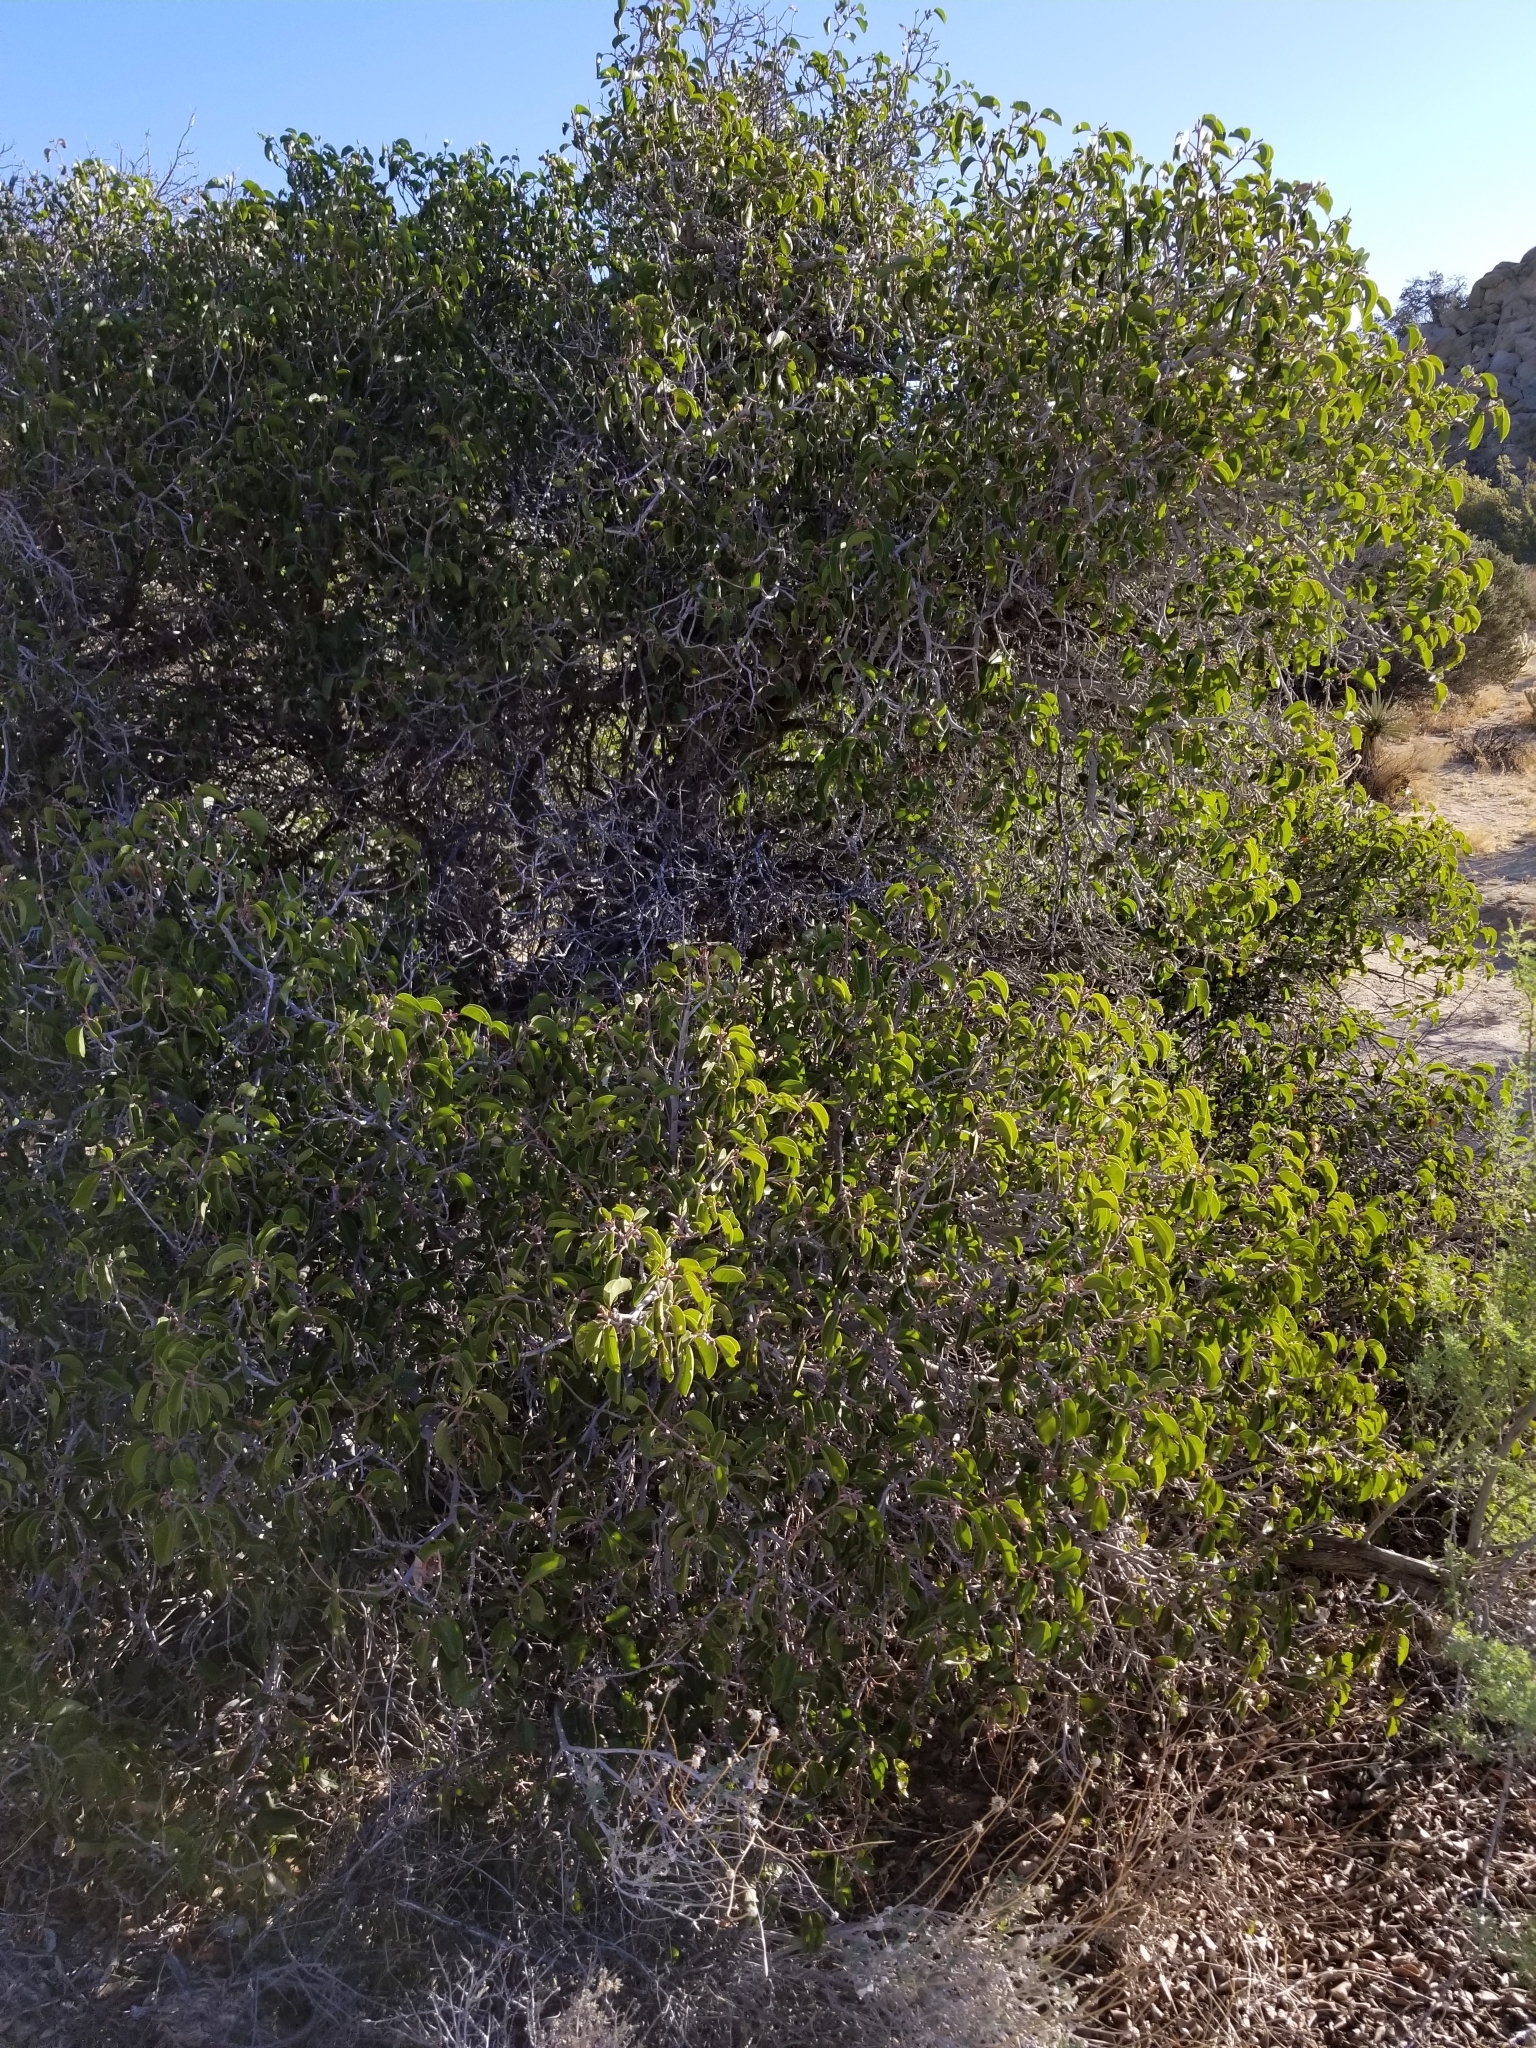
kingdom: Plantae
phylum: Tracheophyta
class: Magnoliopsida
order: Sapindales
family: Anacardiaceae
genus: Rhus
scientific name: Rhus ovata
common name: Sugar sumac
